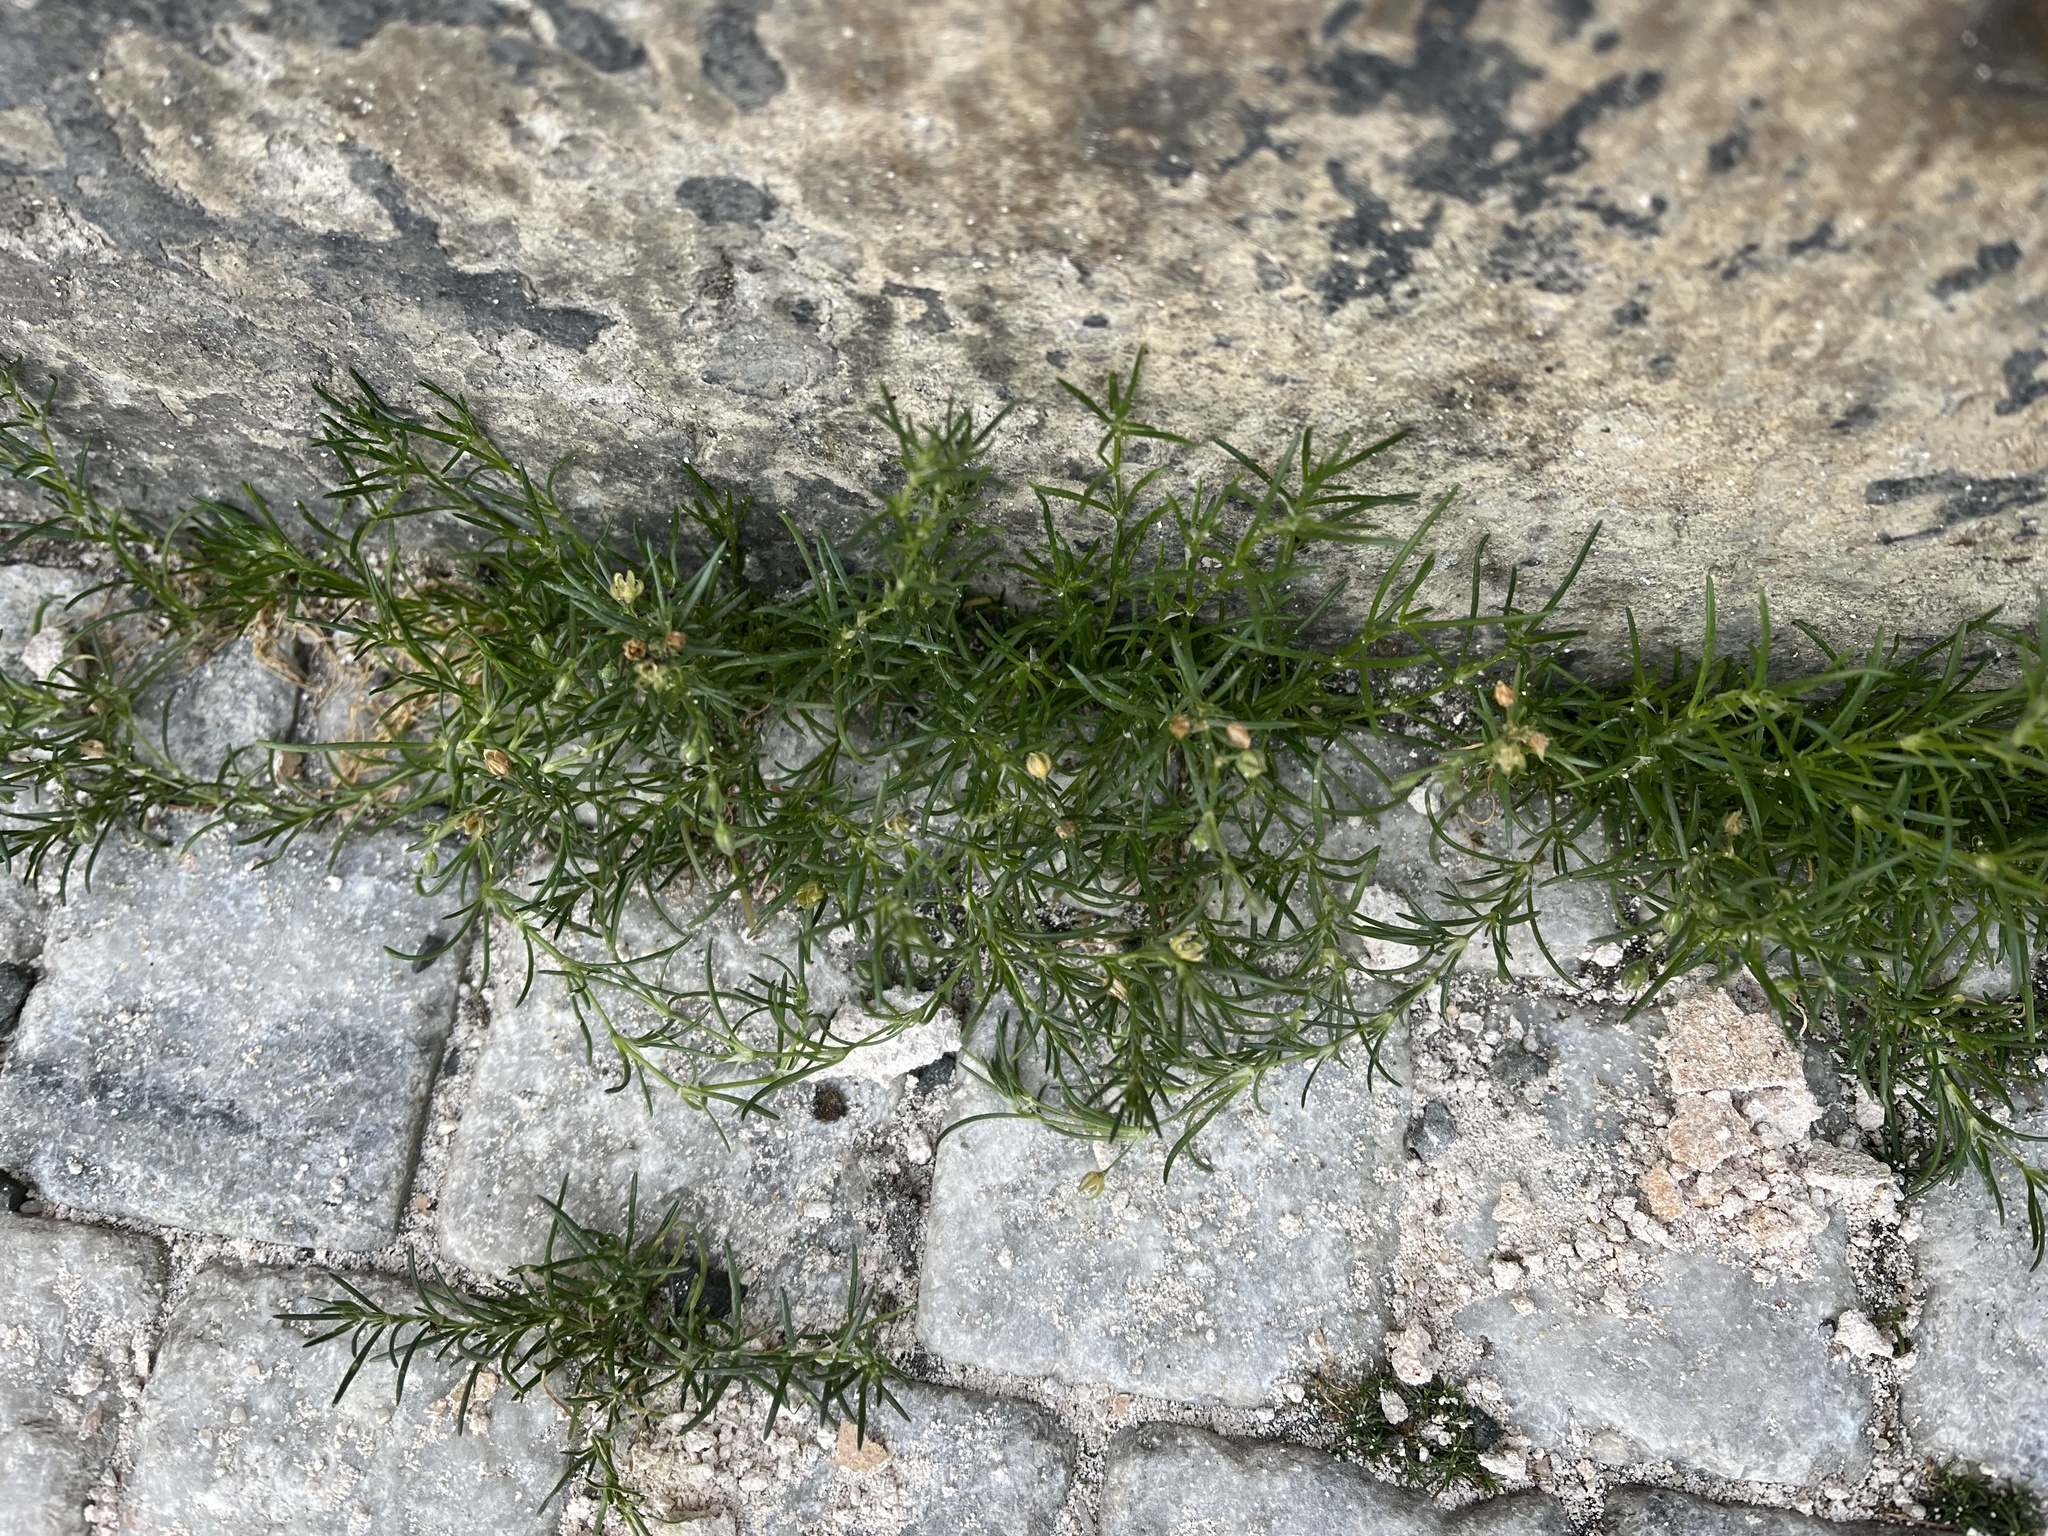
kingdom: Plantae
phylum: Tracheophyta
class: Magnoliopsida
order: Caryophyllales
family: Caryophyllaceae
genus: Spergularia
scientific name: Spergularia rubra
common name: Red sand-spurrey
